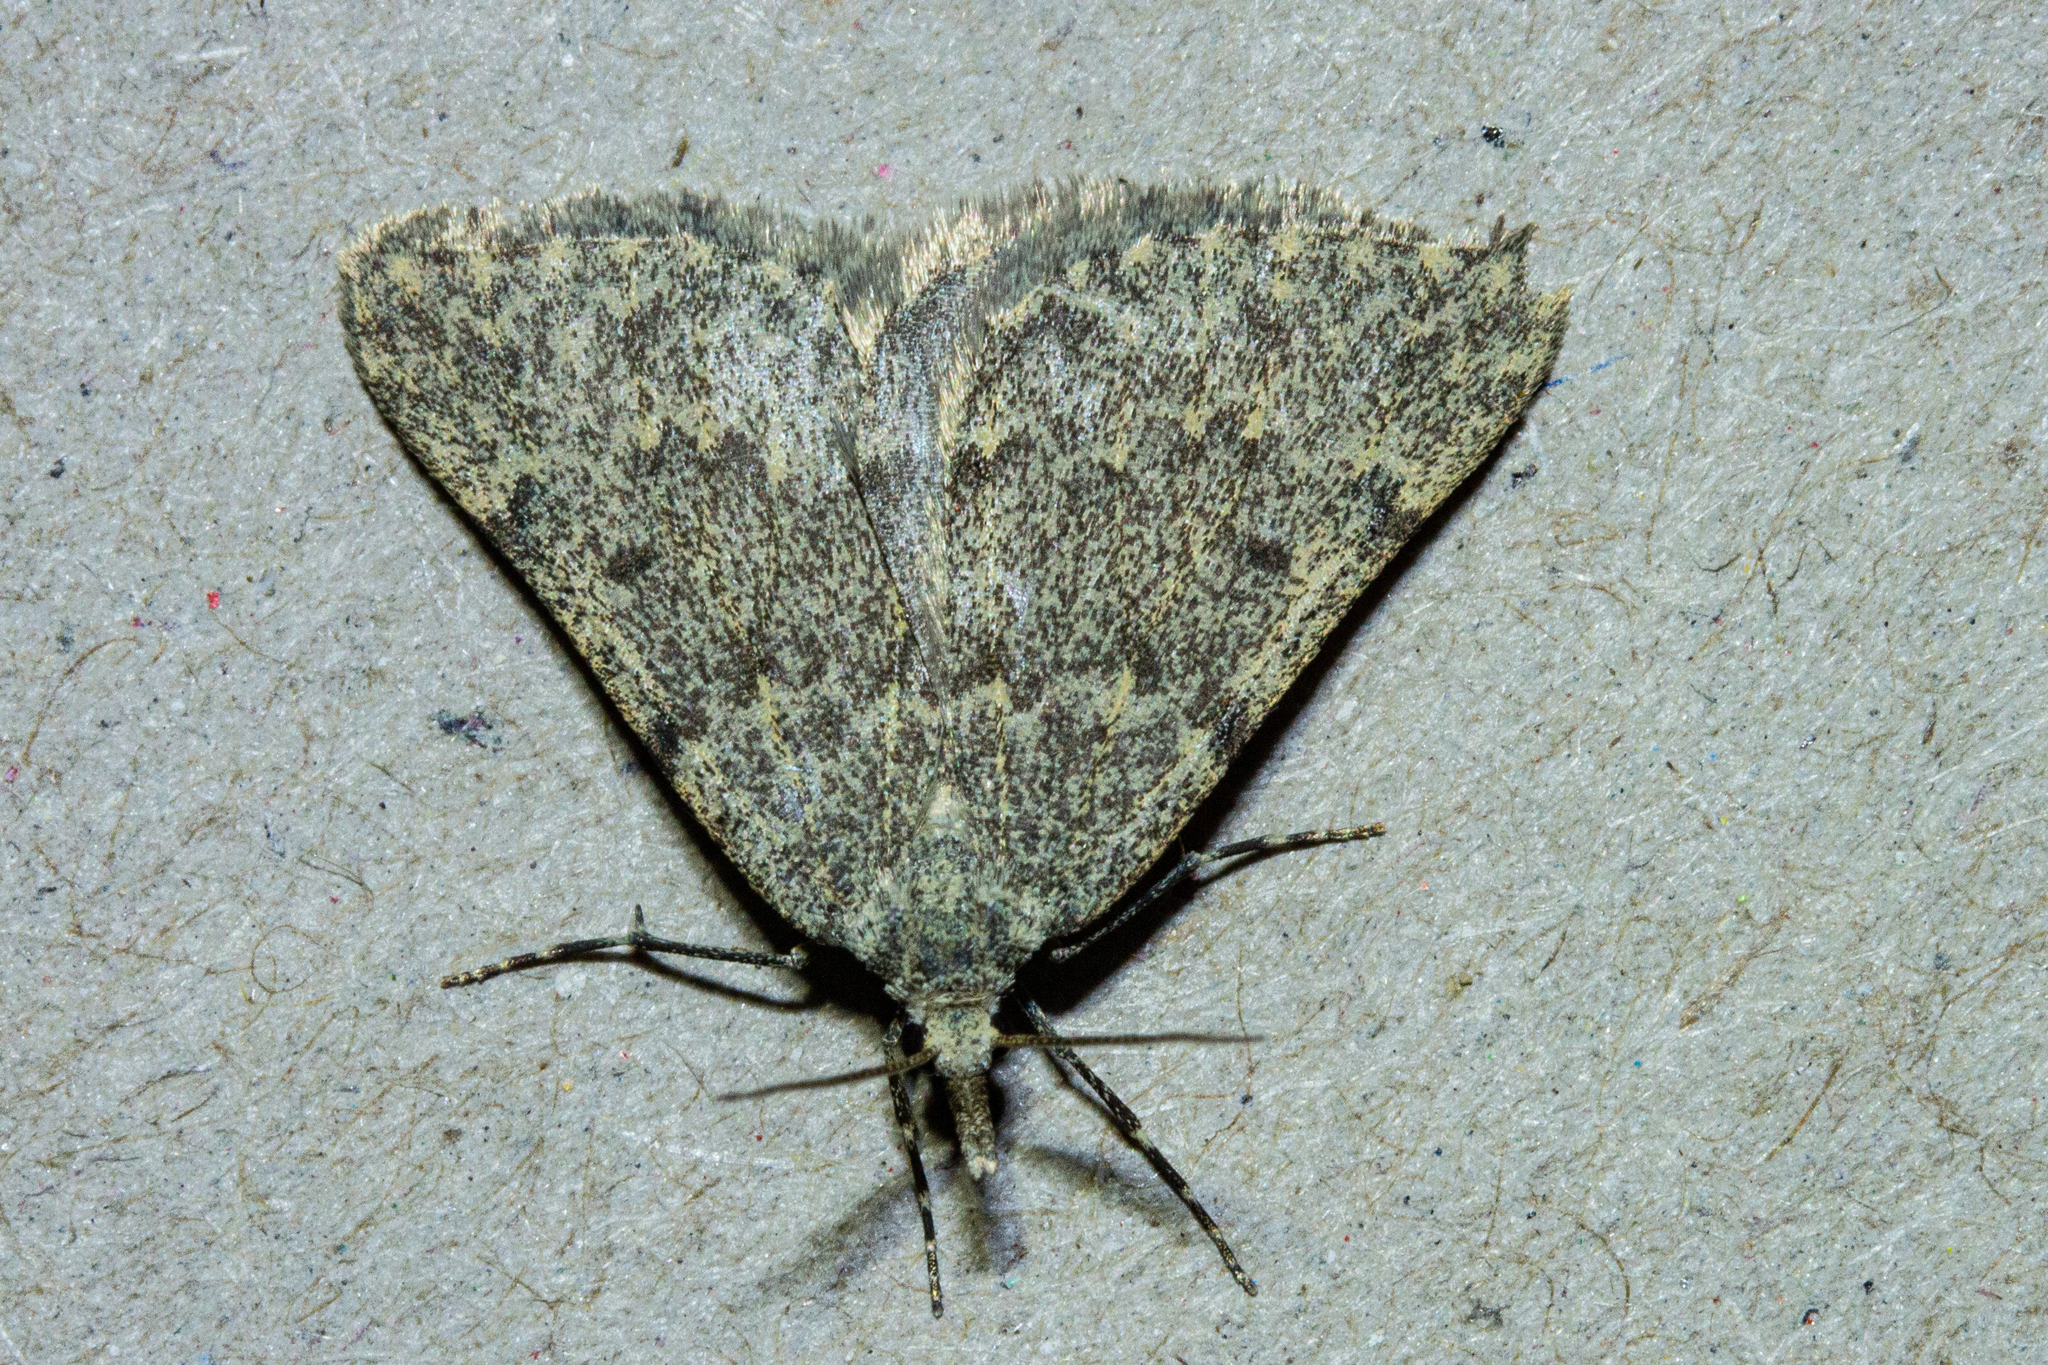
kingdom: Animalia
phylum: Arthropoda
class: Insecta
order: Lepidoptera
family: Geometridae
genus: Dichromodes
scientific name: Dichromodes sphaeriata
